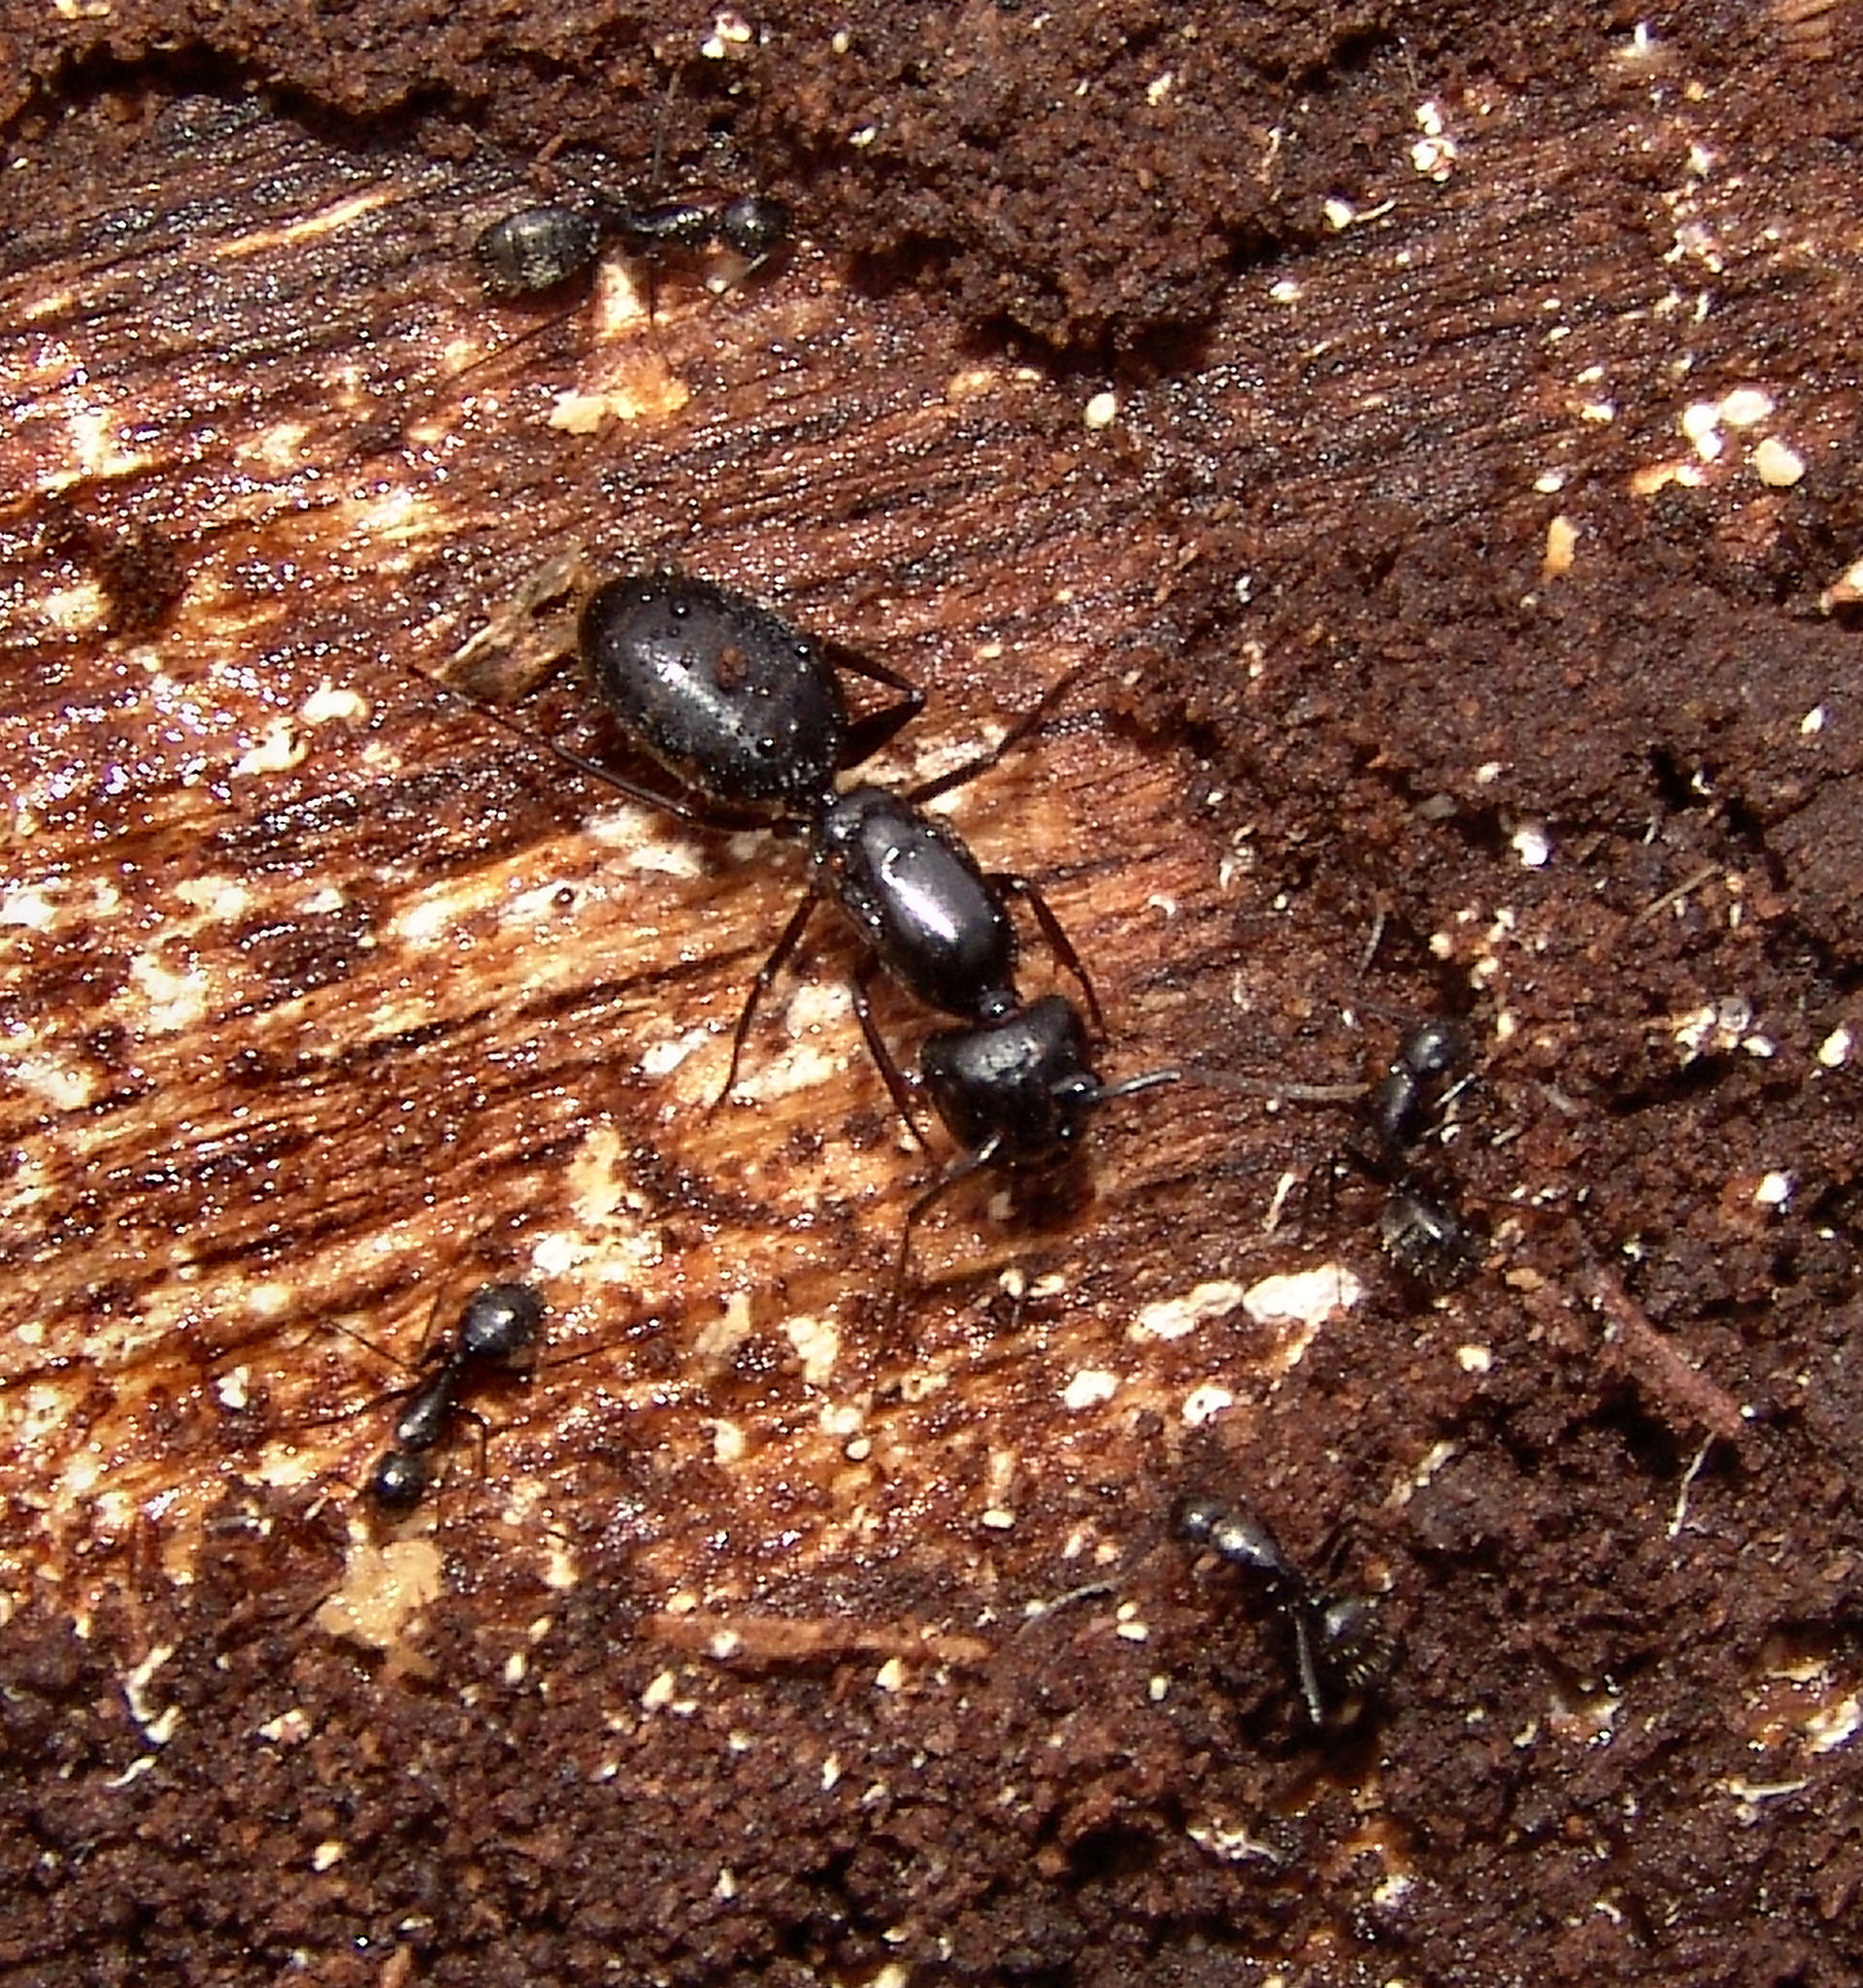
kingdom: Animalia
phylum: Arthropoda
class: Insecta
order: Hymenoptera
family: Formicidae
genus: Camponotus
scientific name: Camponotus pennsylvanicus
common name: Black carpenter ant
